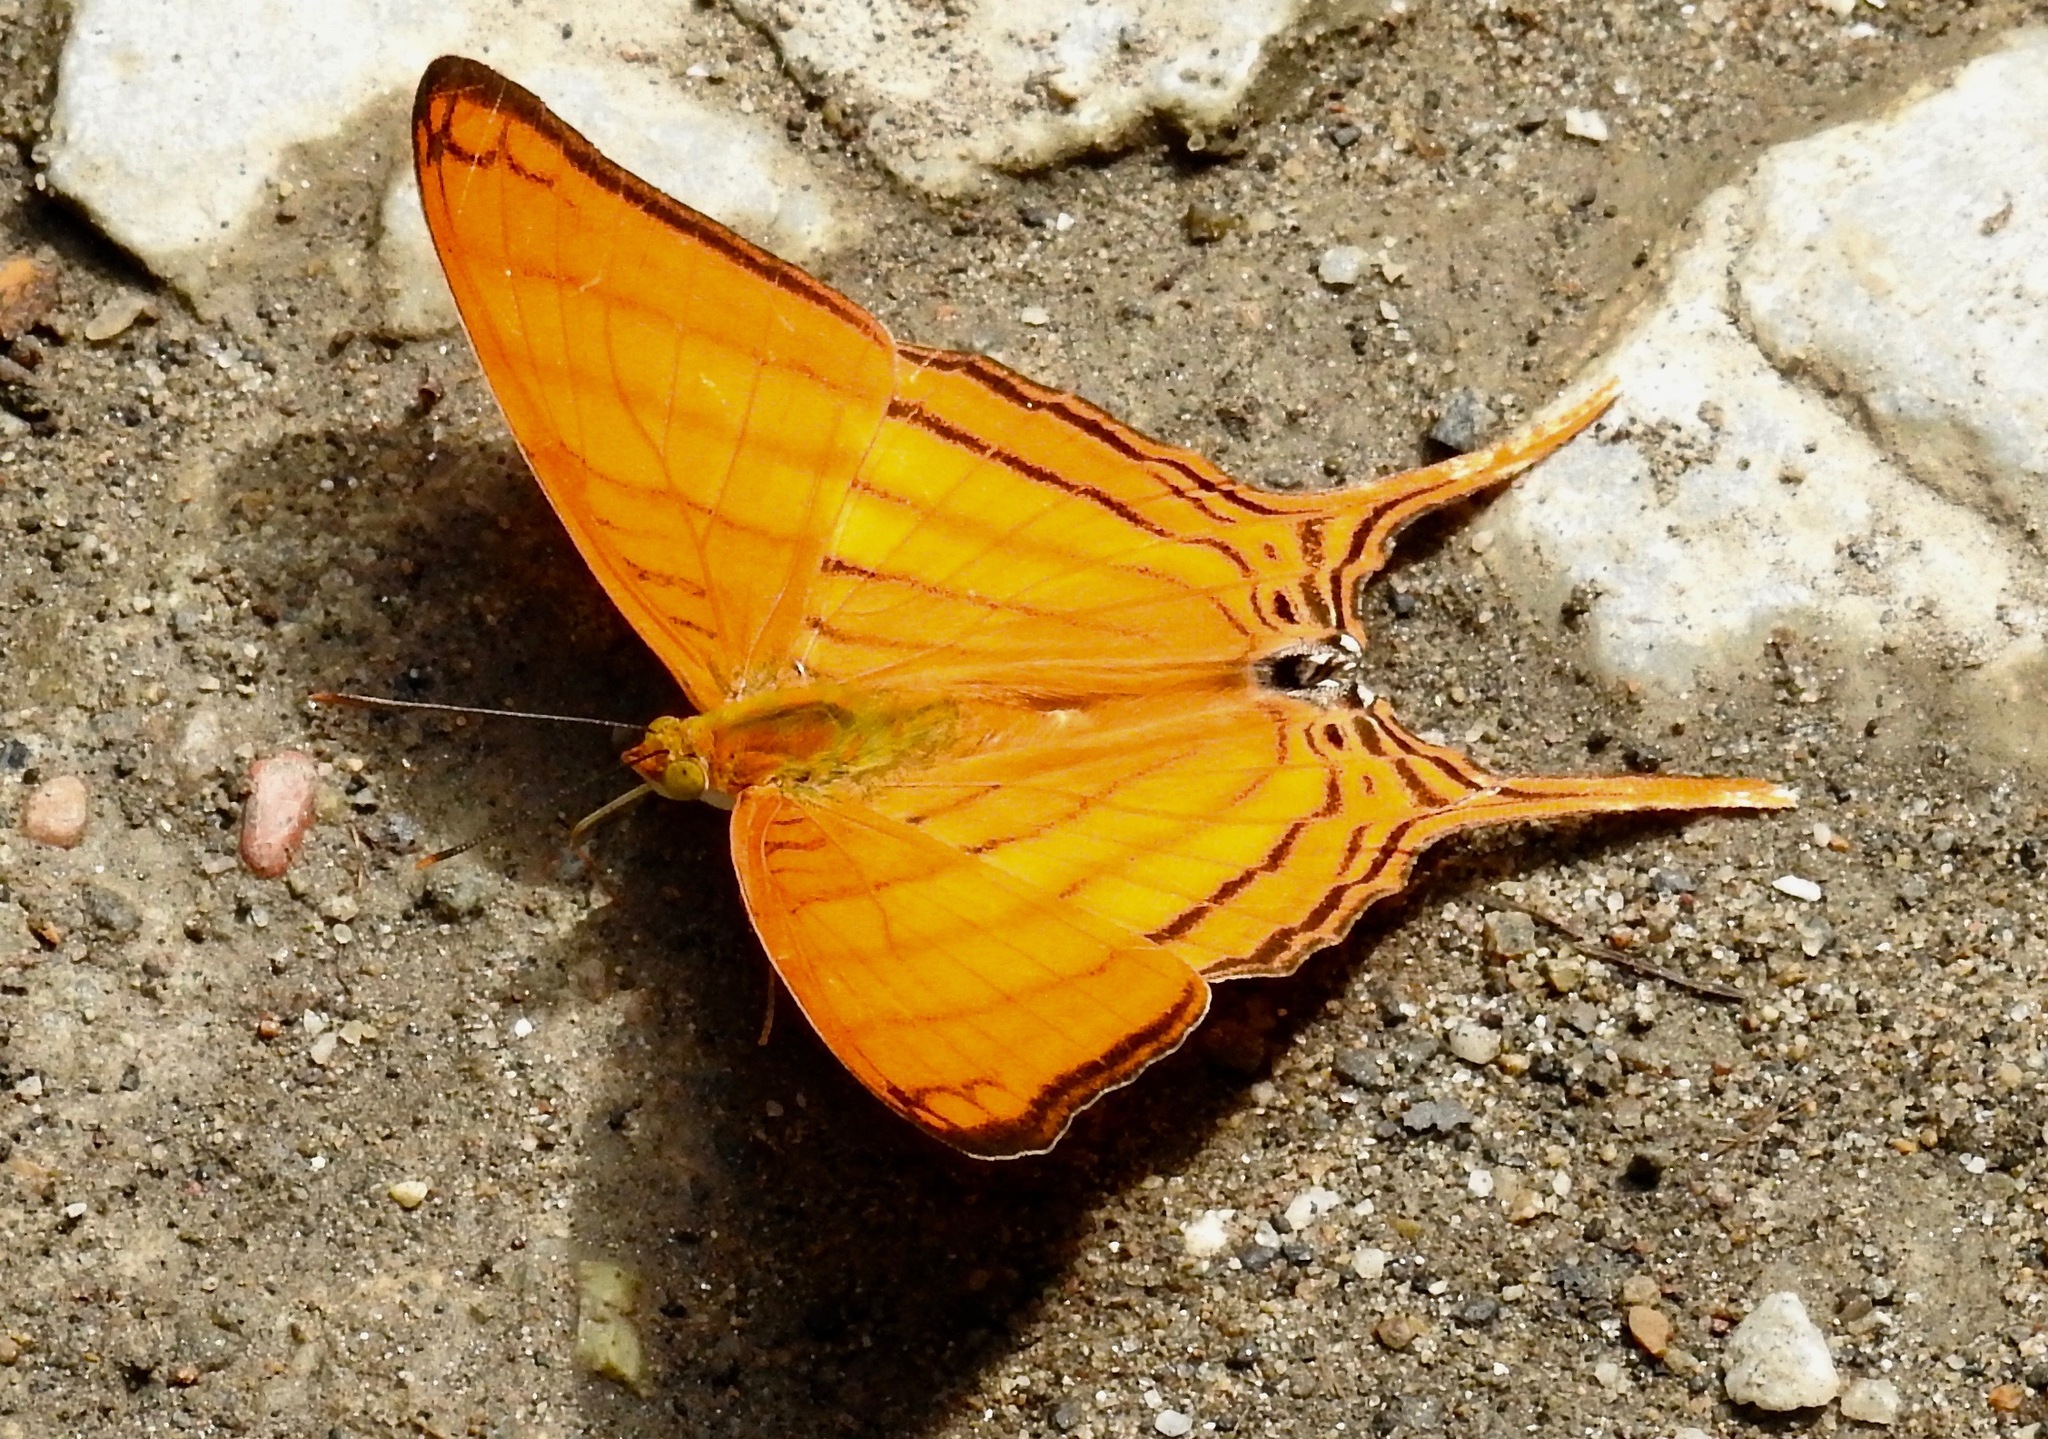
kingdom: Animalia
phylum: Arthropoda
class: Insecta
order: Lepidoptera
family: Nymphalidae
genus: Marpesia
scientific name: Marpesia berania
